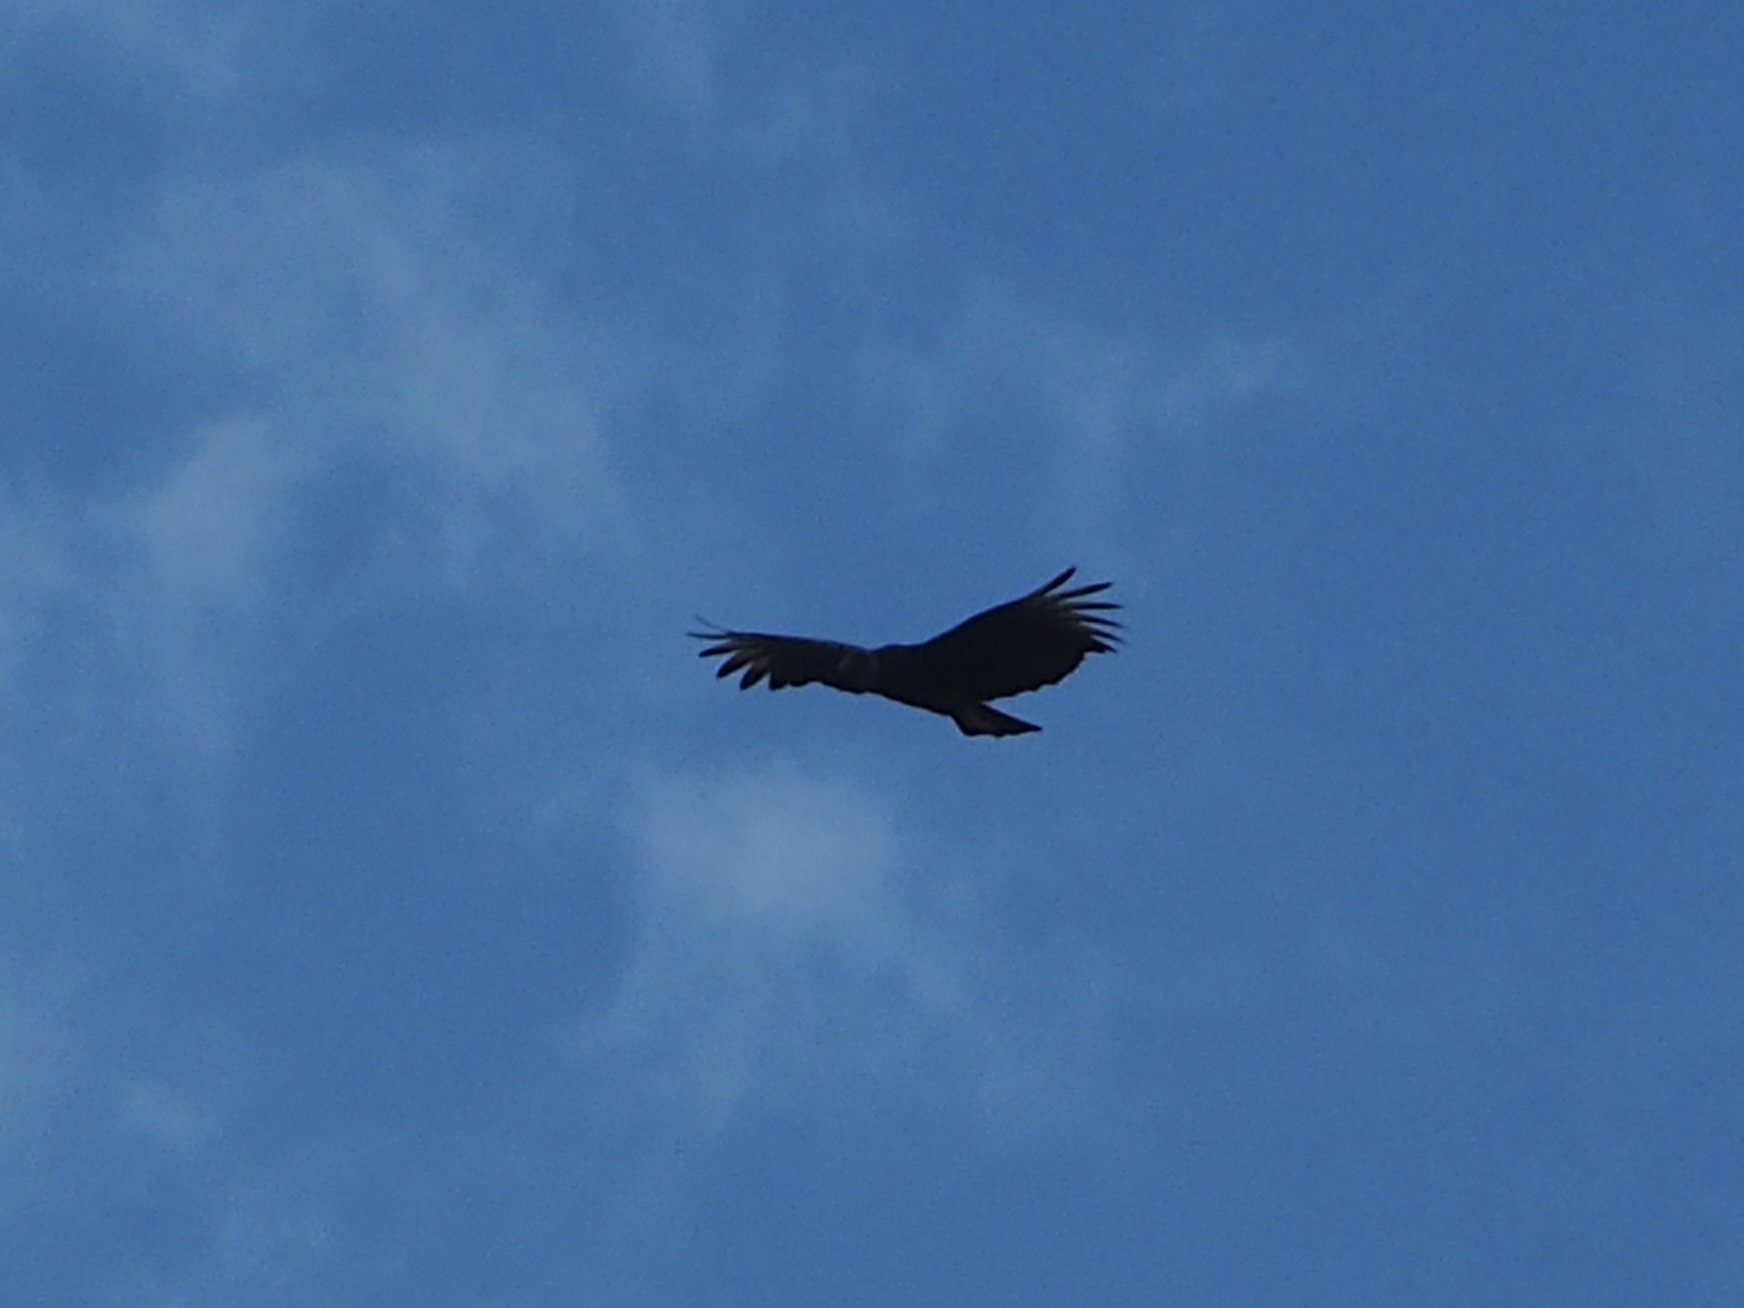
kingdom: Animalia
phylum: Chordata
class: Aves
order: Accipitriformes
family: Cathartidae
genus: Coragyps
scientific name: Coragyps atratus
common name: Black vulture
